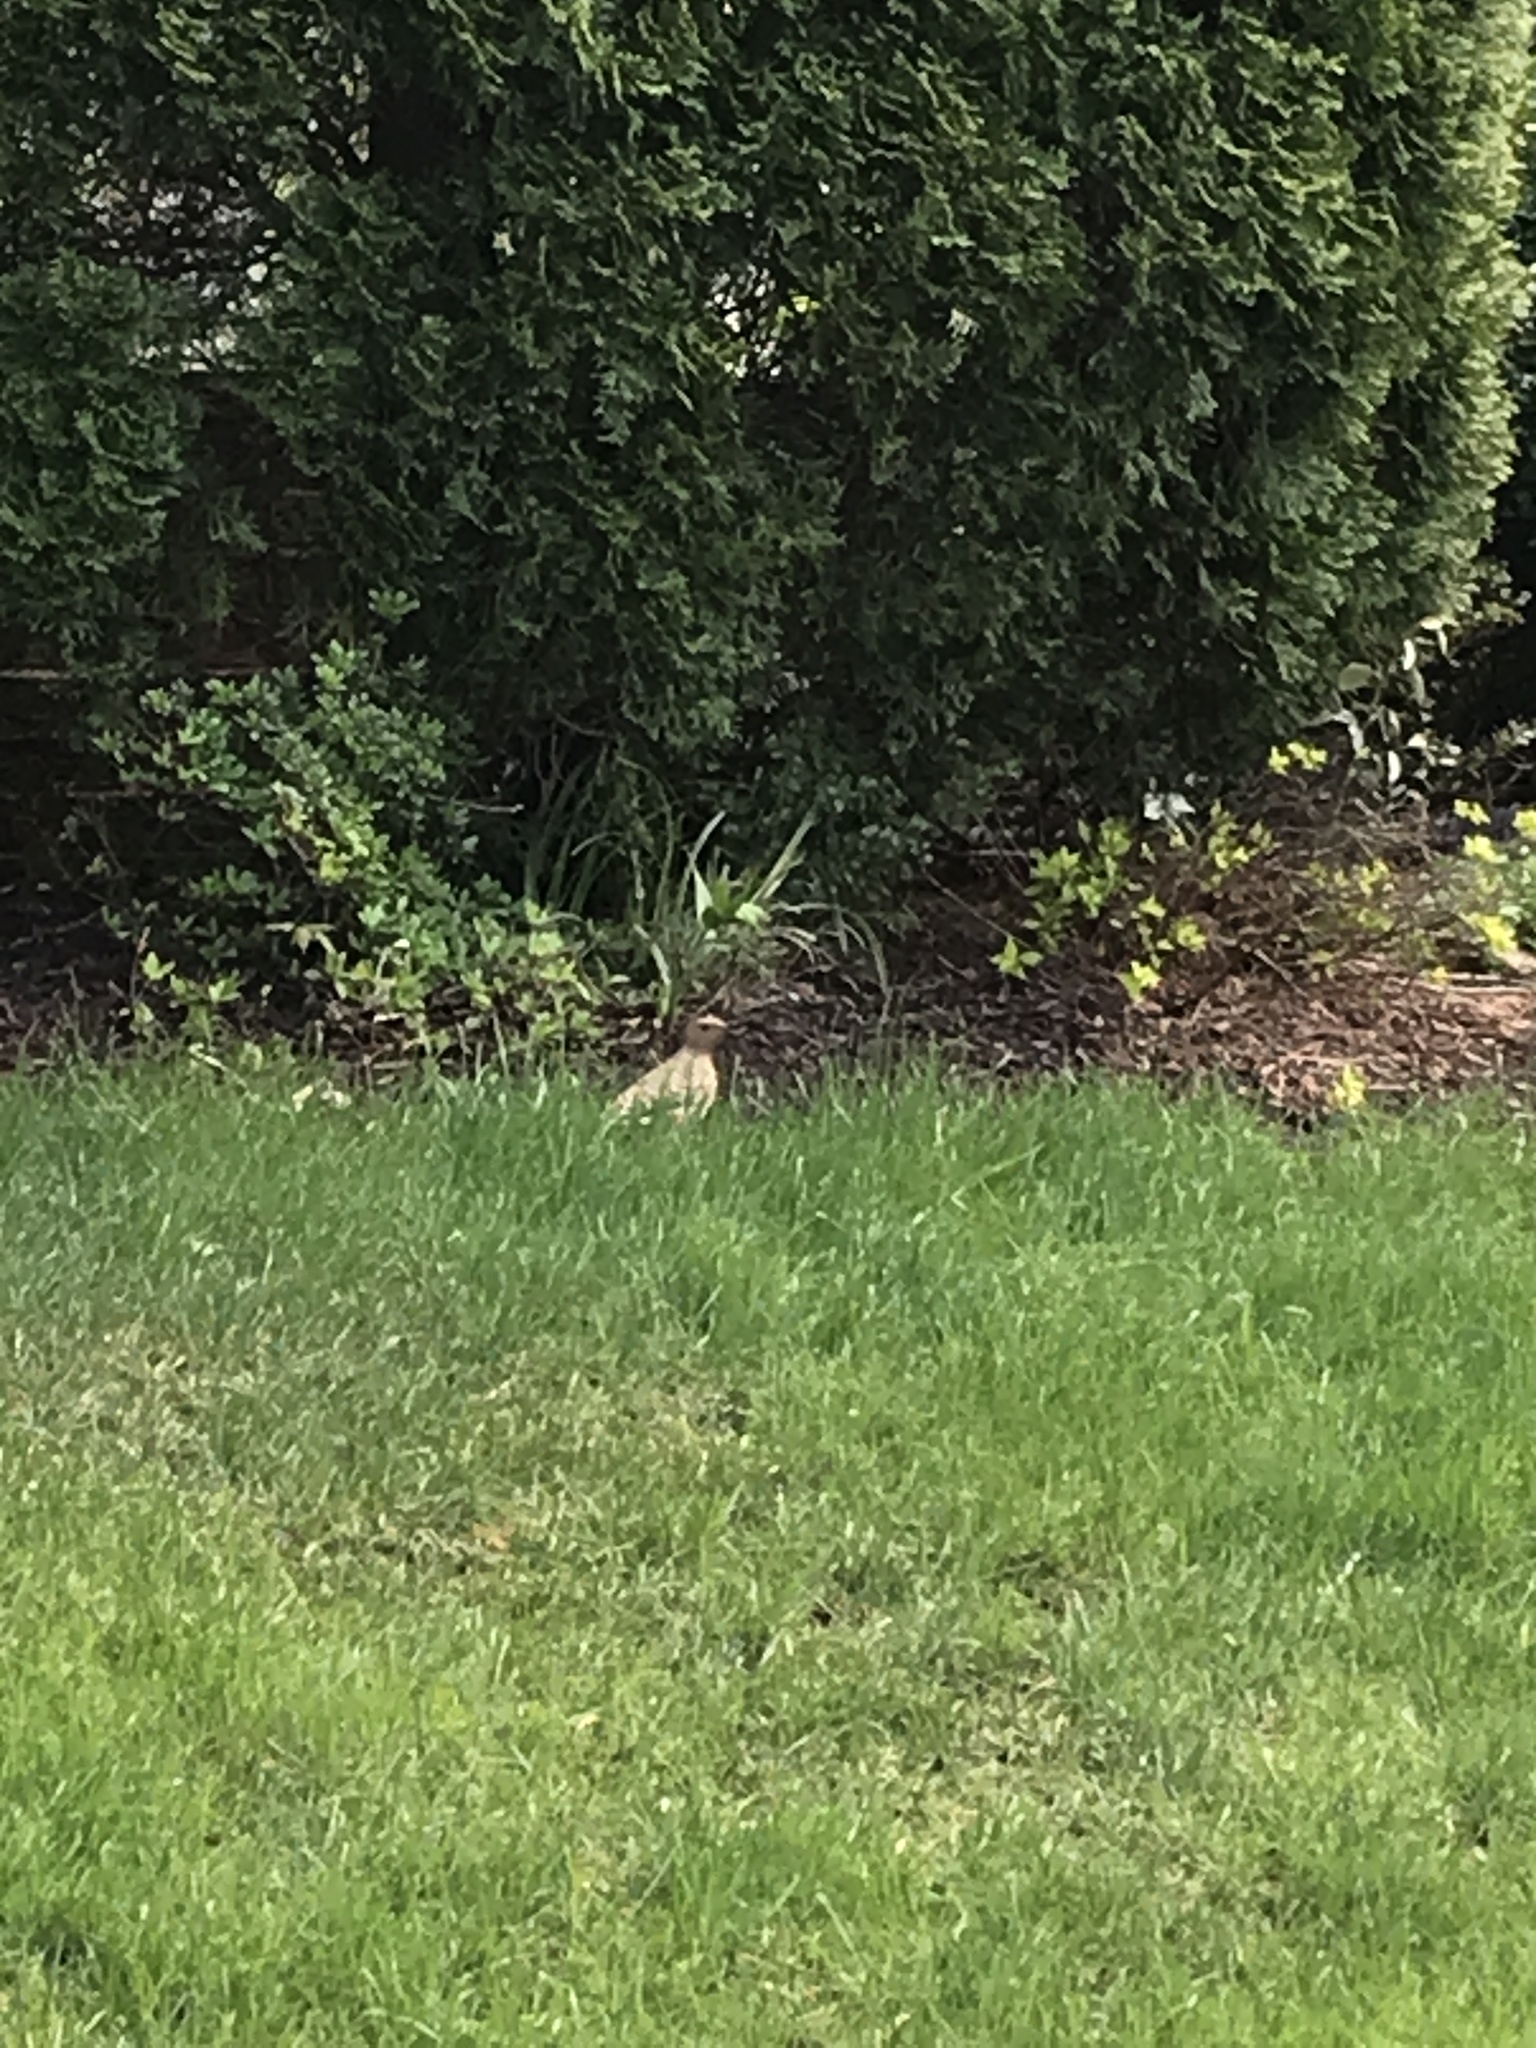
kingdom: Animalia
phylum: Chordata
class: Aves
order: Piciformes
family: Picidae
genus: Colaptes
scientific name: Colaptes auratus
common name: Northern flicker
